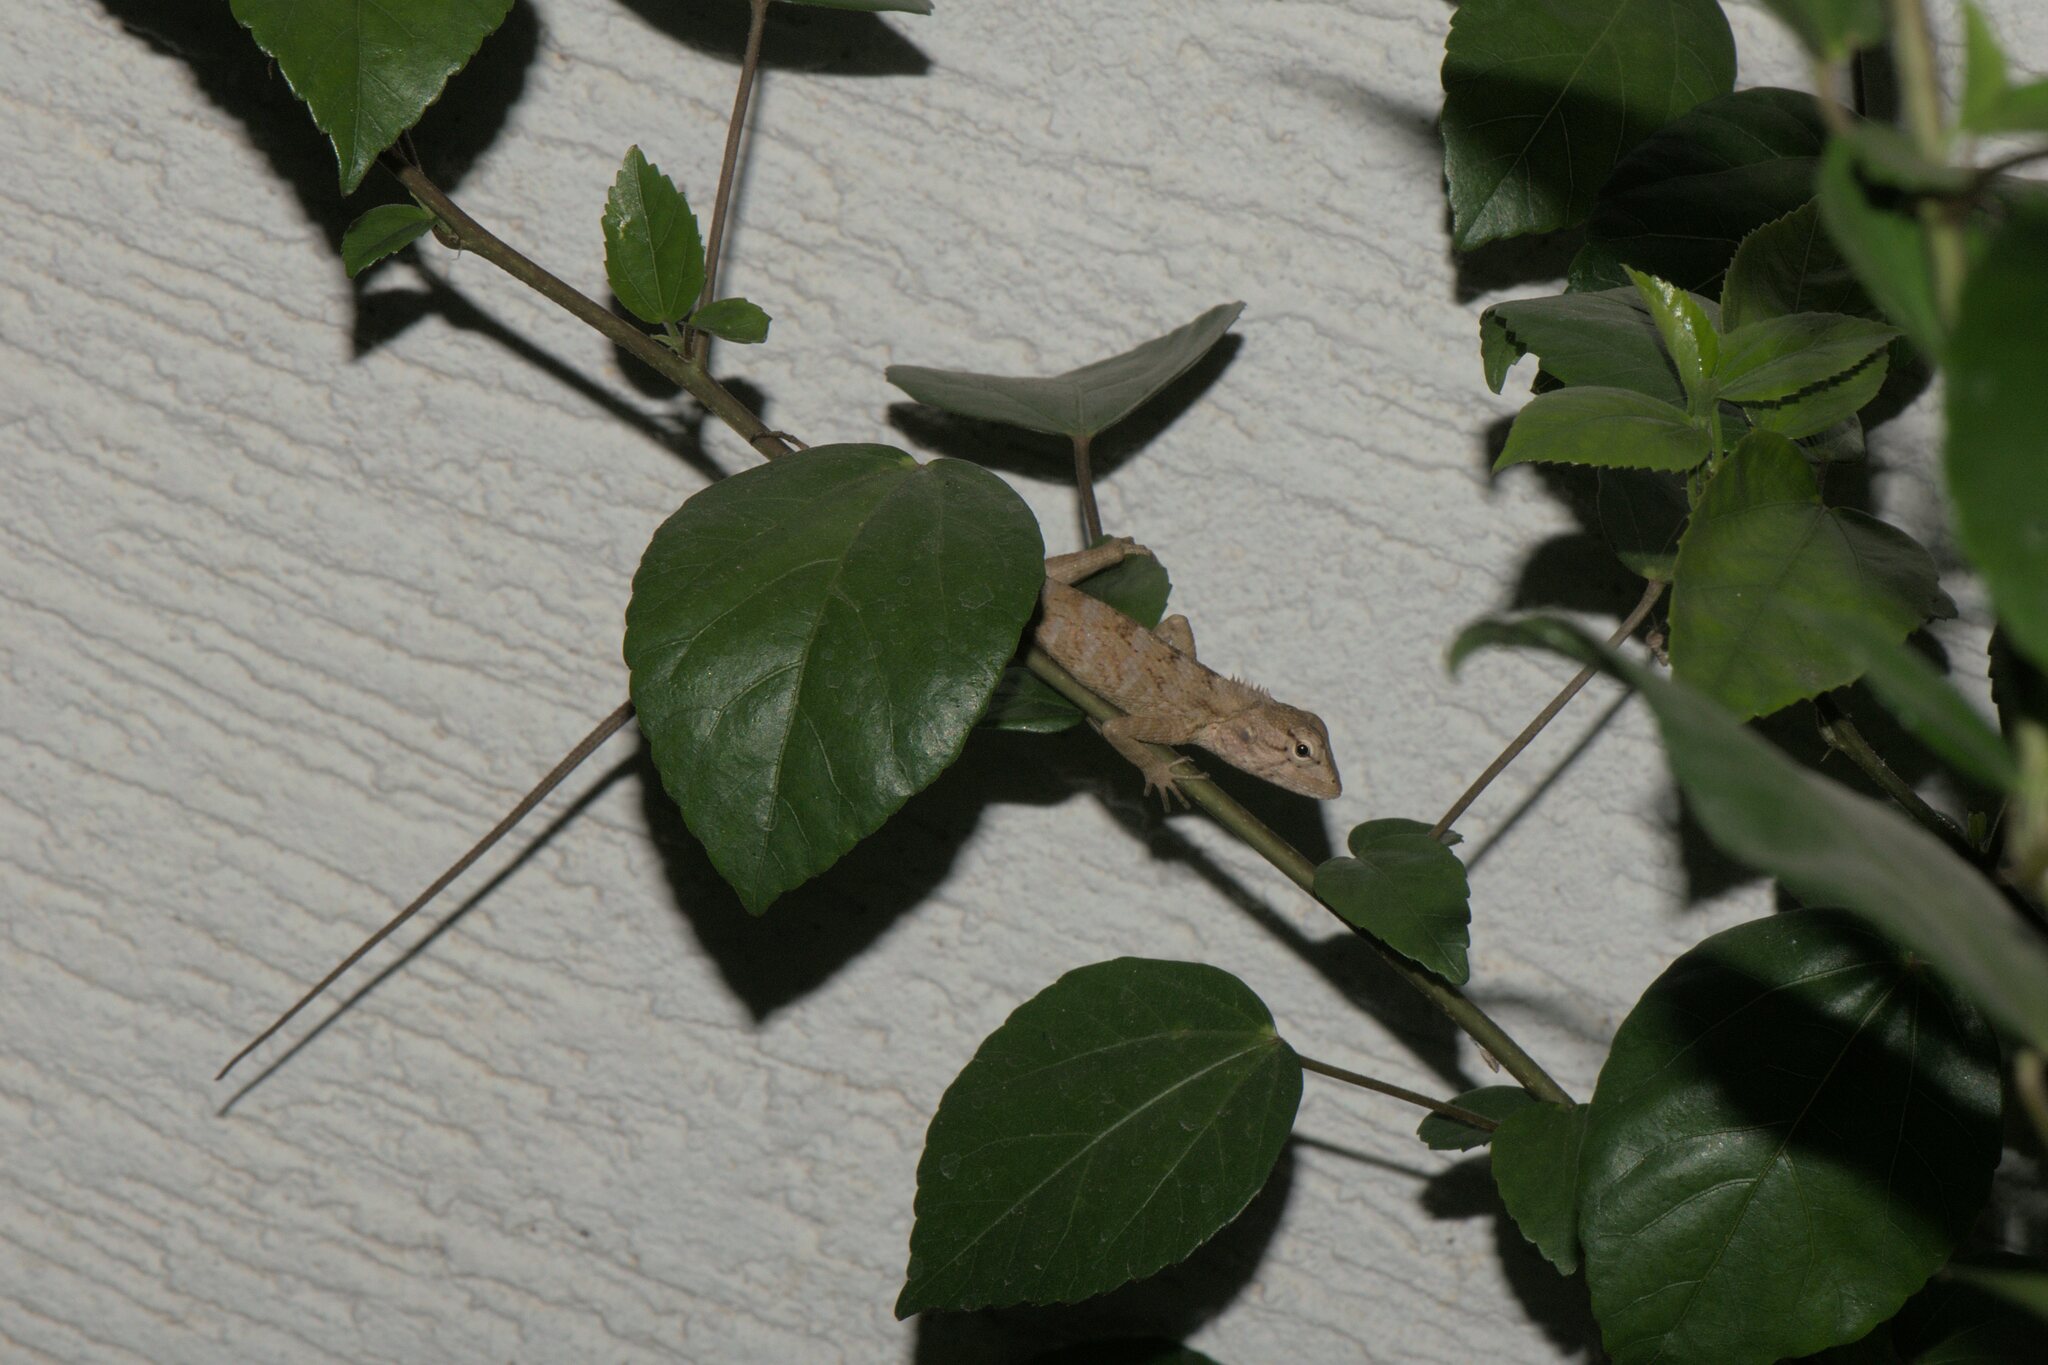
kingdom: Animalia
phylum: Chordata
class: Squamata
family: Agamidae
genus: Calotes
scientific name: Calotes versicolor
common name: Oriental garden lizard
